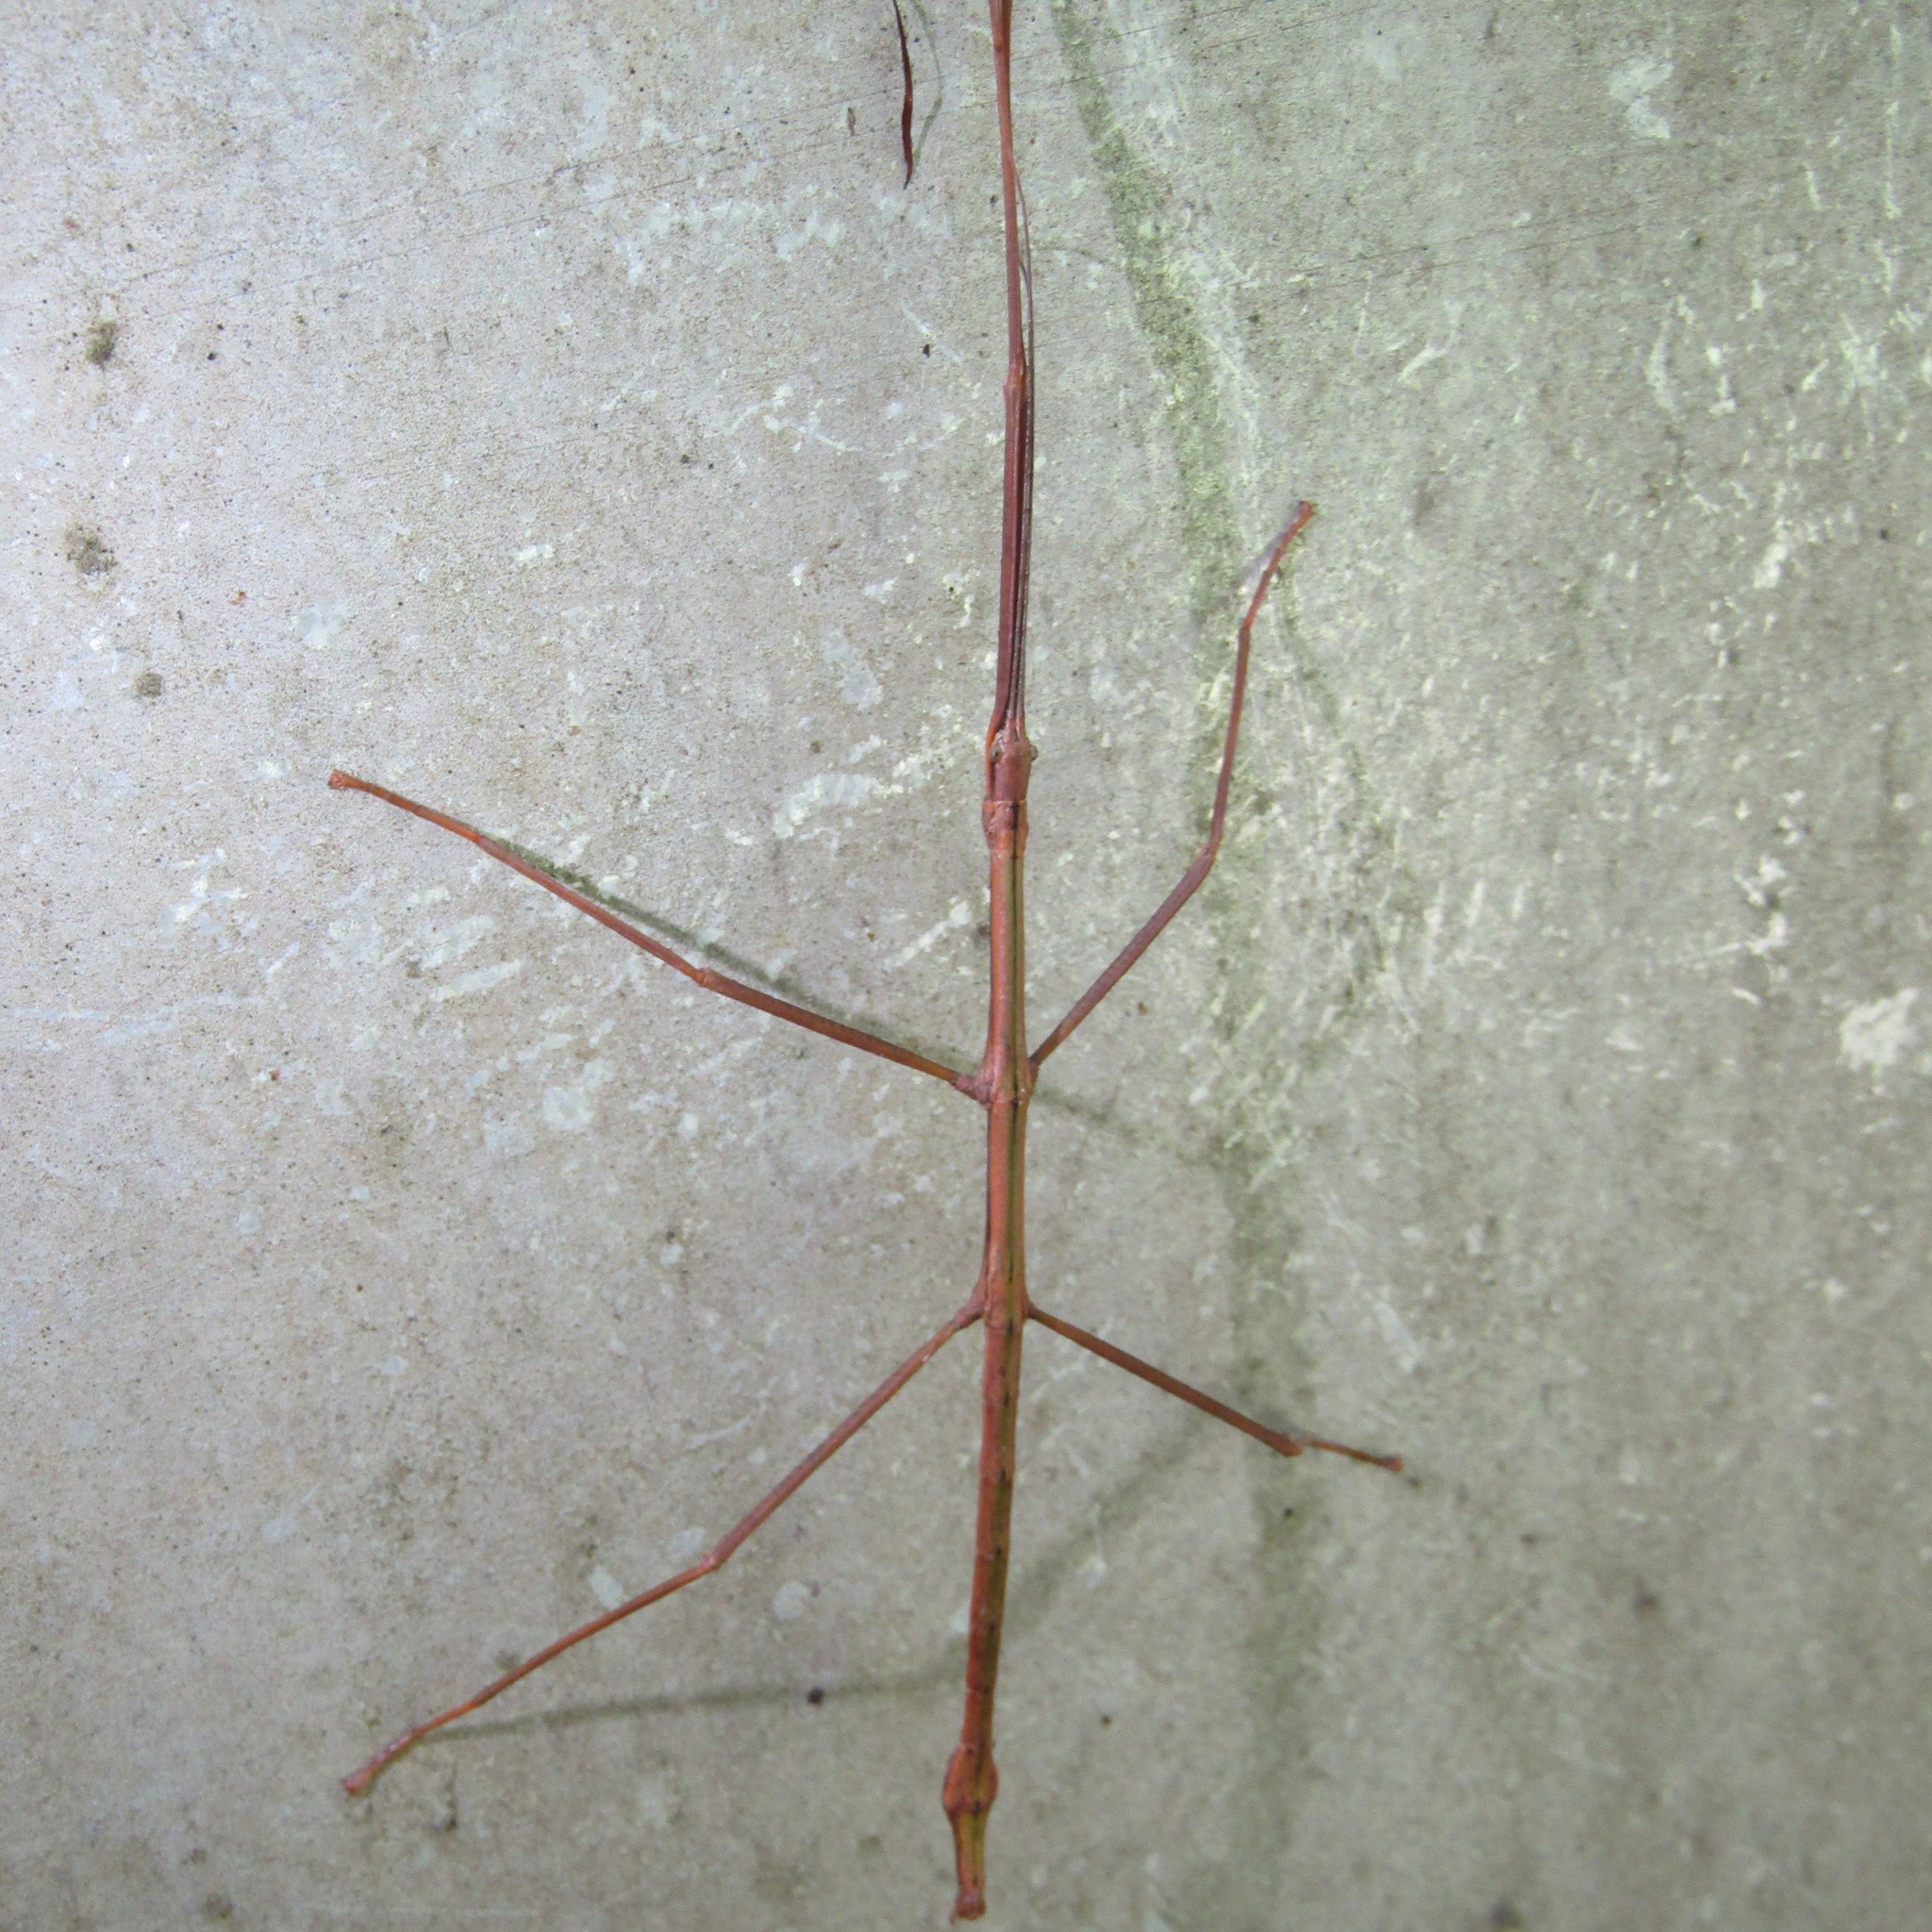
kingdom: Animalia
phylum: Arthropoda
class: Insecta
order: Phasmida
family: Phasmatidae
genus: Clitarchus
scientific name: Clitarchus hookeri
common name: Smooth stick insect
